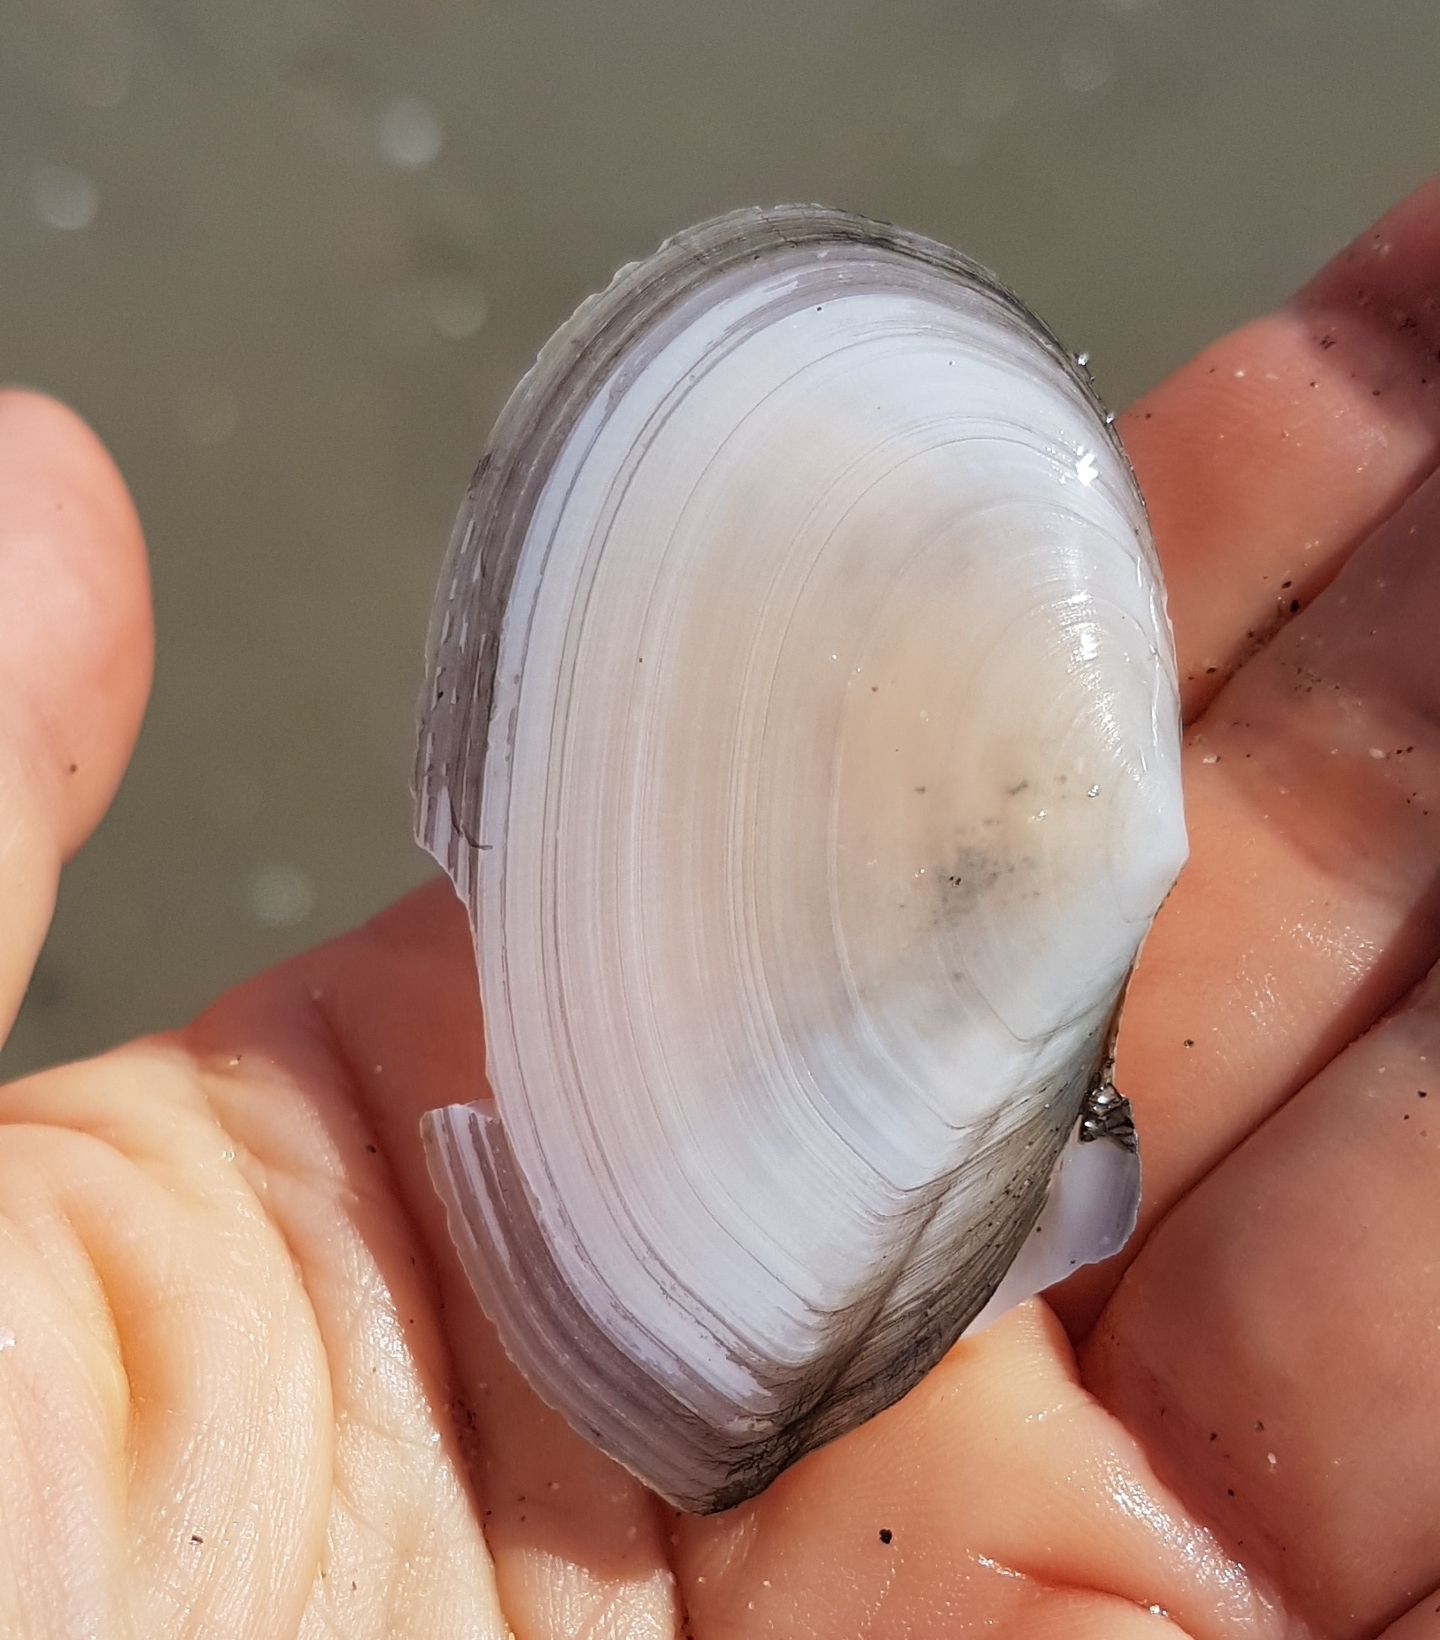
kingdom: Animalia
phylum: Mollusca
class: Bivalvia
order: Cardiida
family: Tellinidae
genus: Peronaea
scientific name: Peronaea planata
